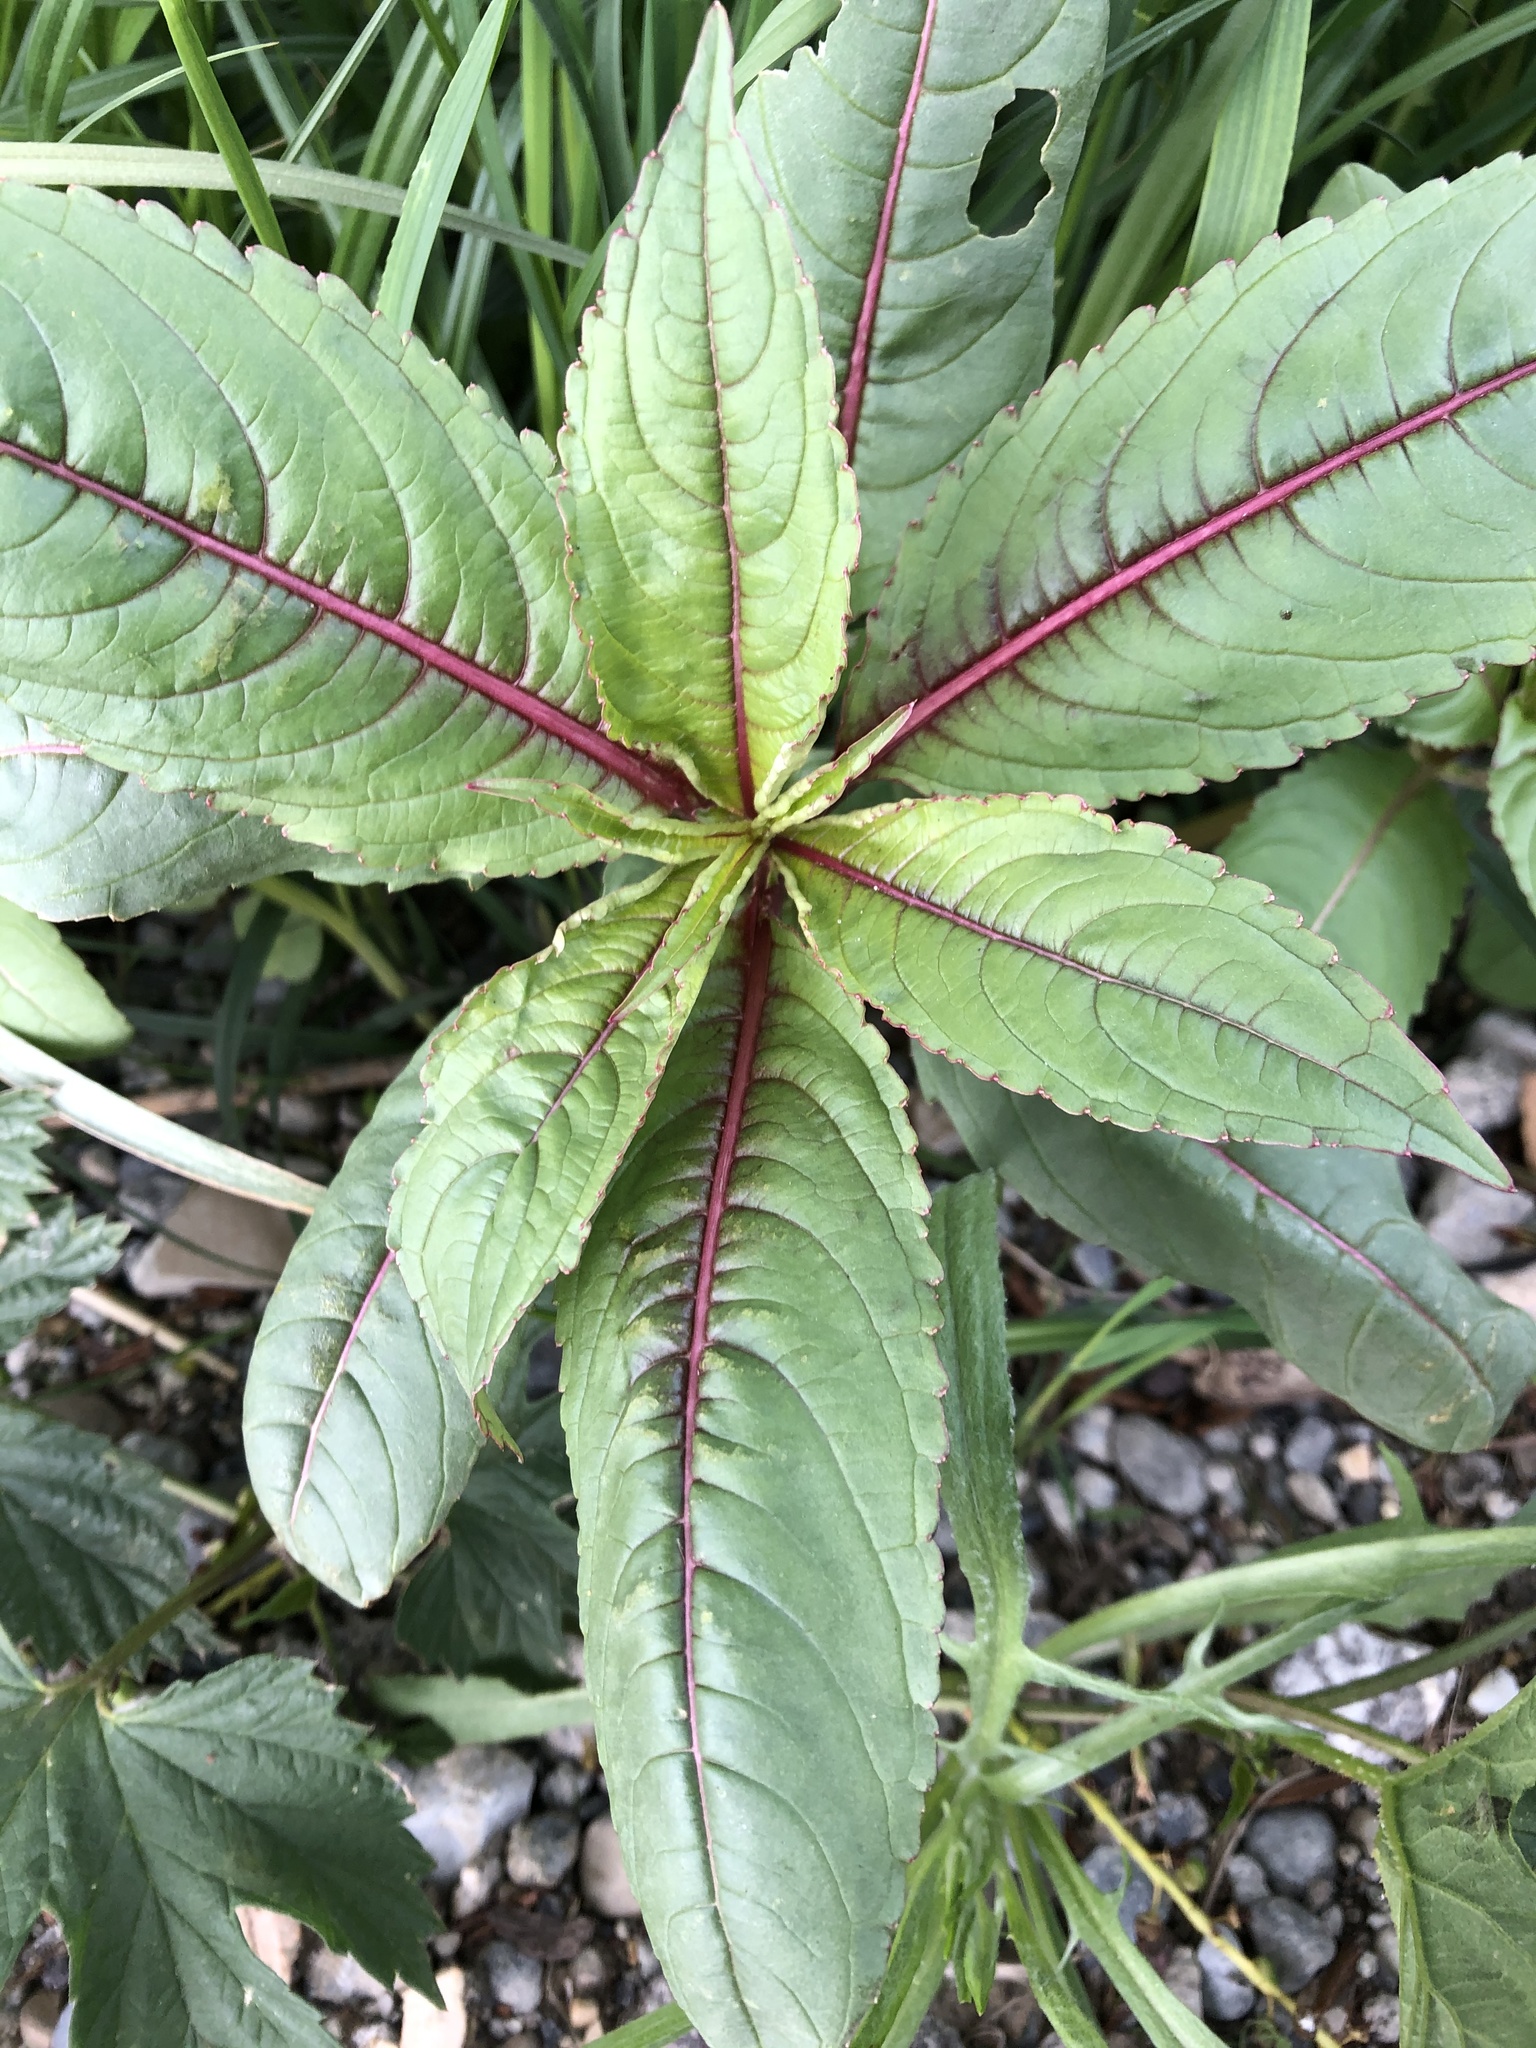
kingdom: Plantae
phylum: Tracheophyta
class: Magnoliopsida
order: Ericales
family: Balsaminaceae
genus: Impatiens
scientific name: Impatiens glandulifera
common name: Himalayan balsam
